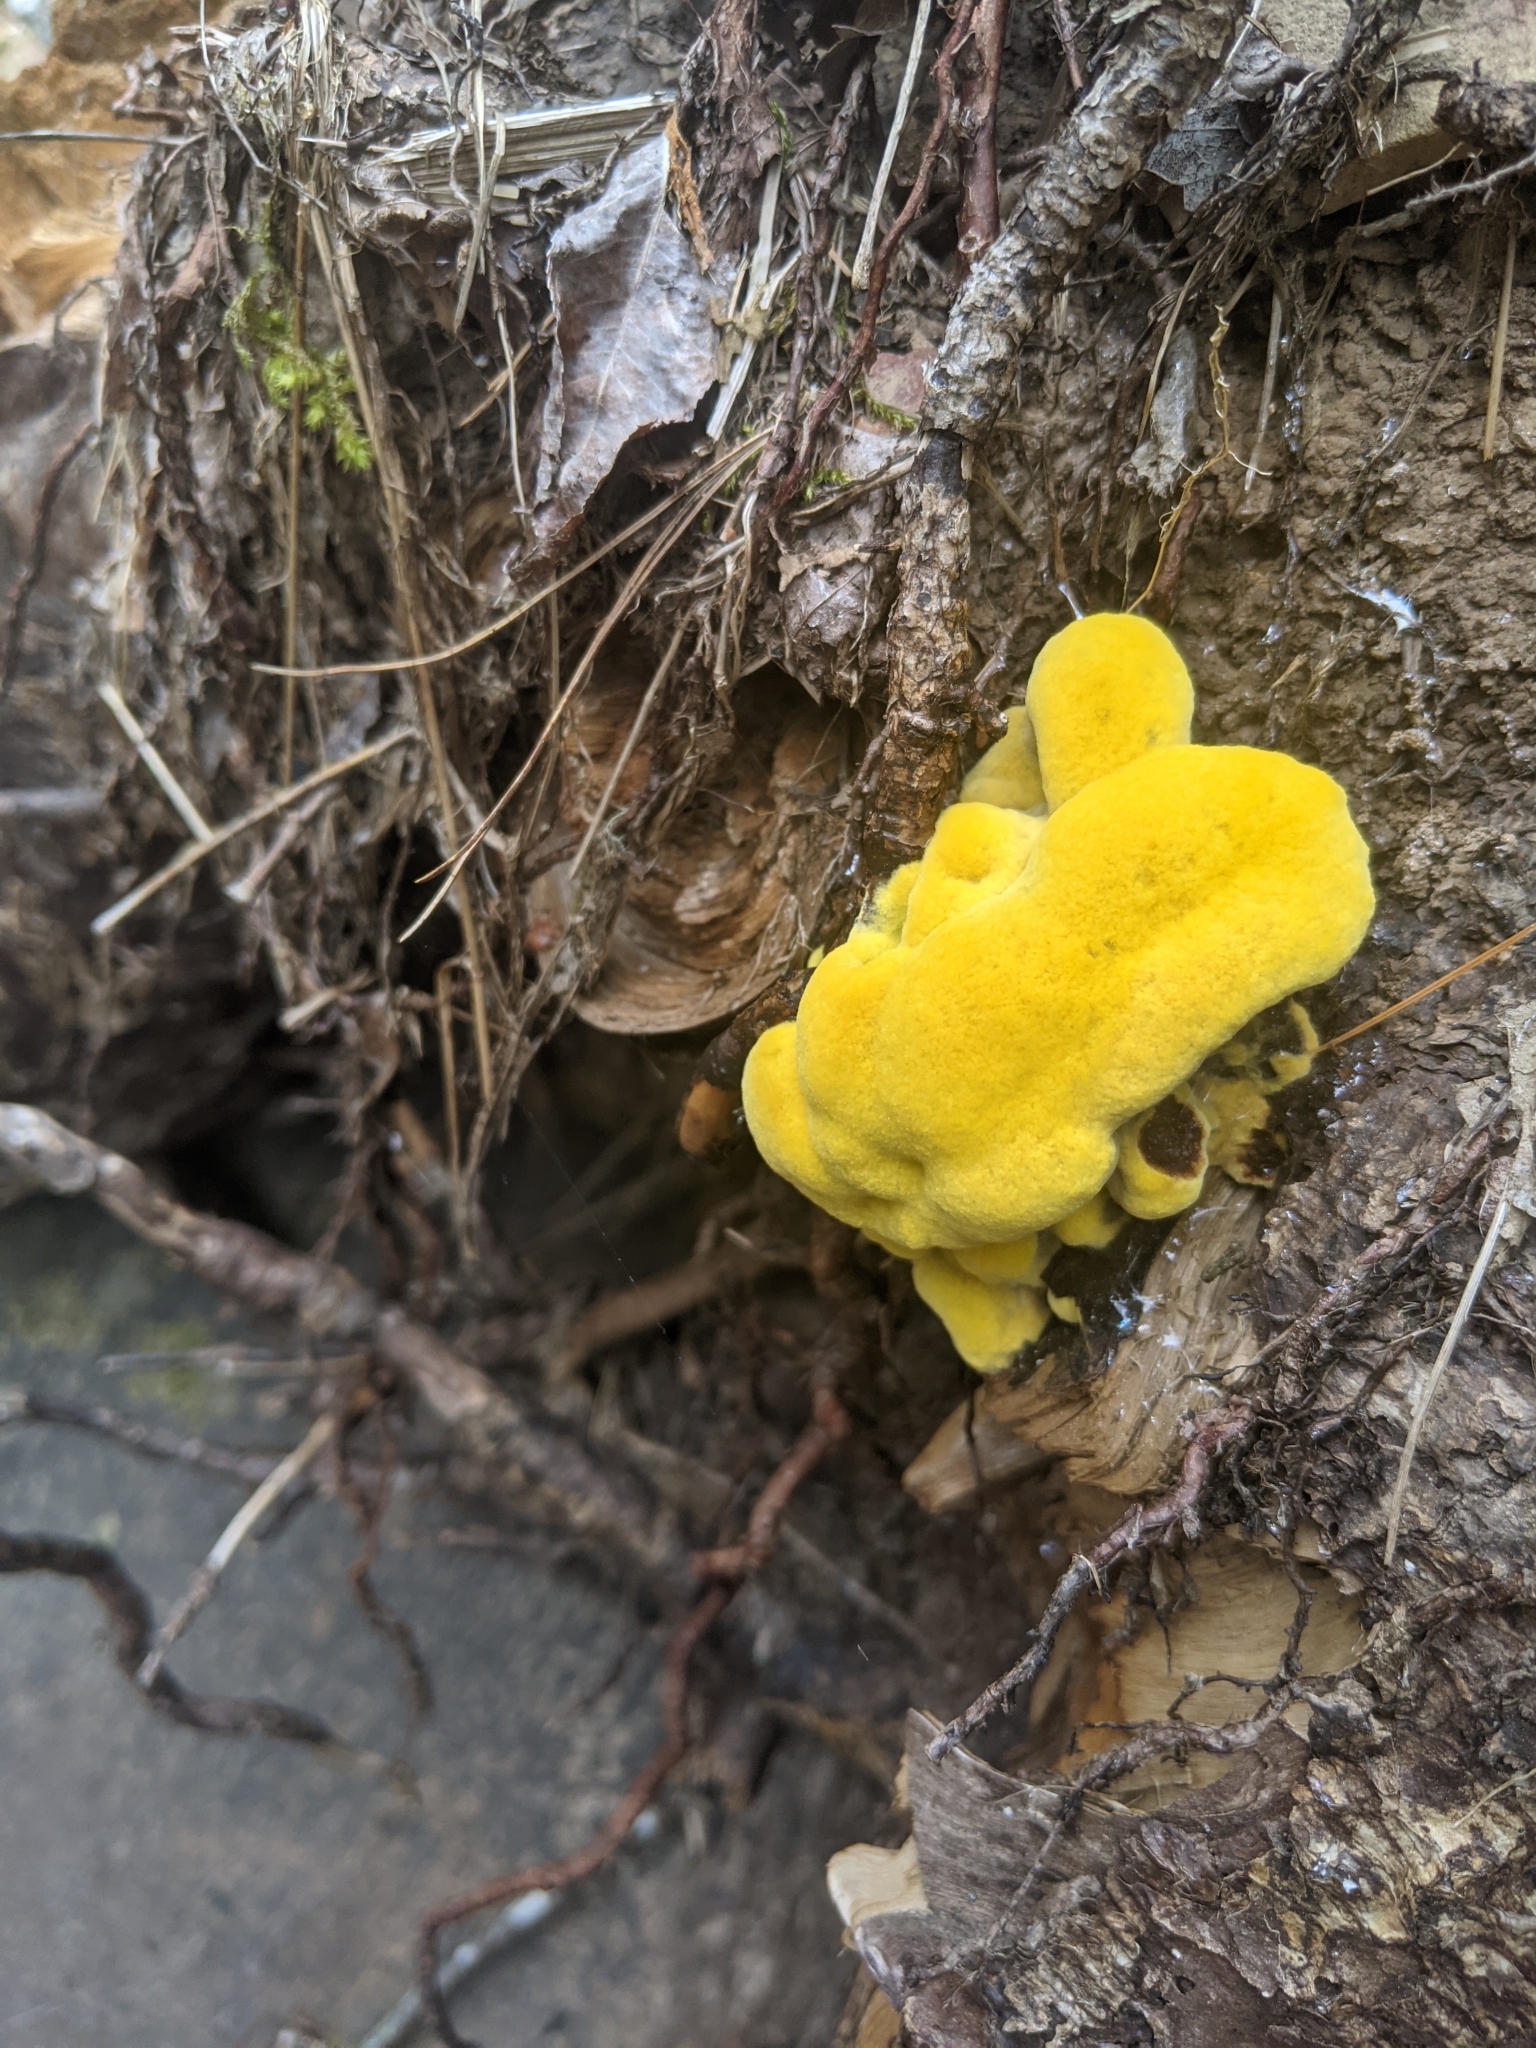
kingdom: Fungi
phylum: Basidiomycota
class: Agaricomycetes
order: Polyporales
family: Laetiporaceae
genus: Phaeolus
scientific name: Phaeolus schweinitzii
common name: Dyer's mazegill
